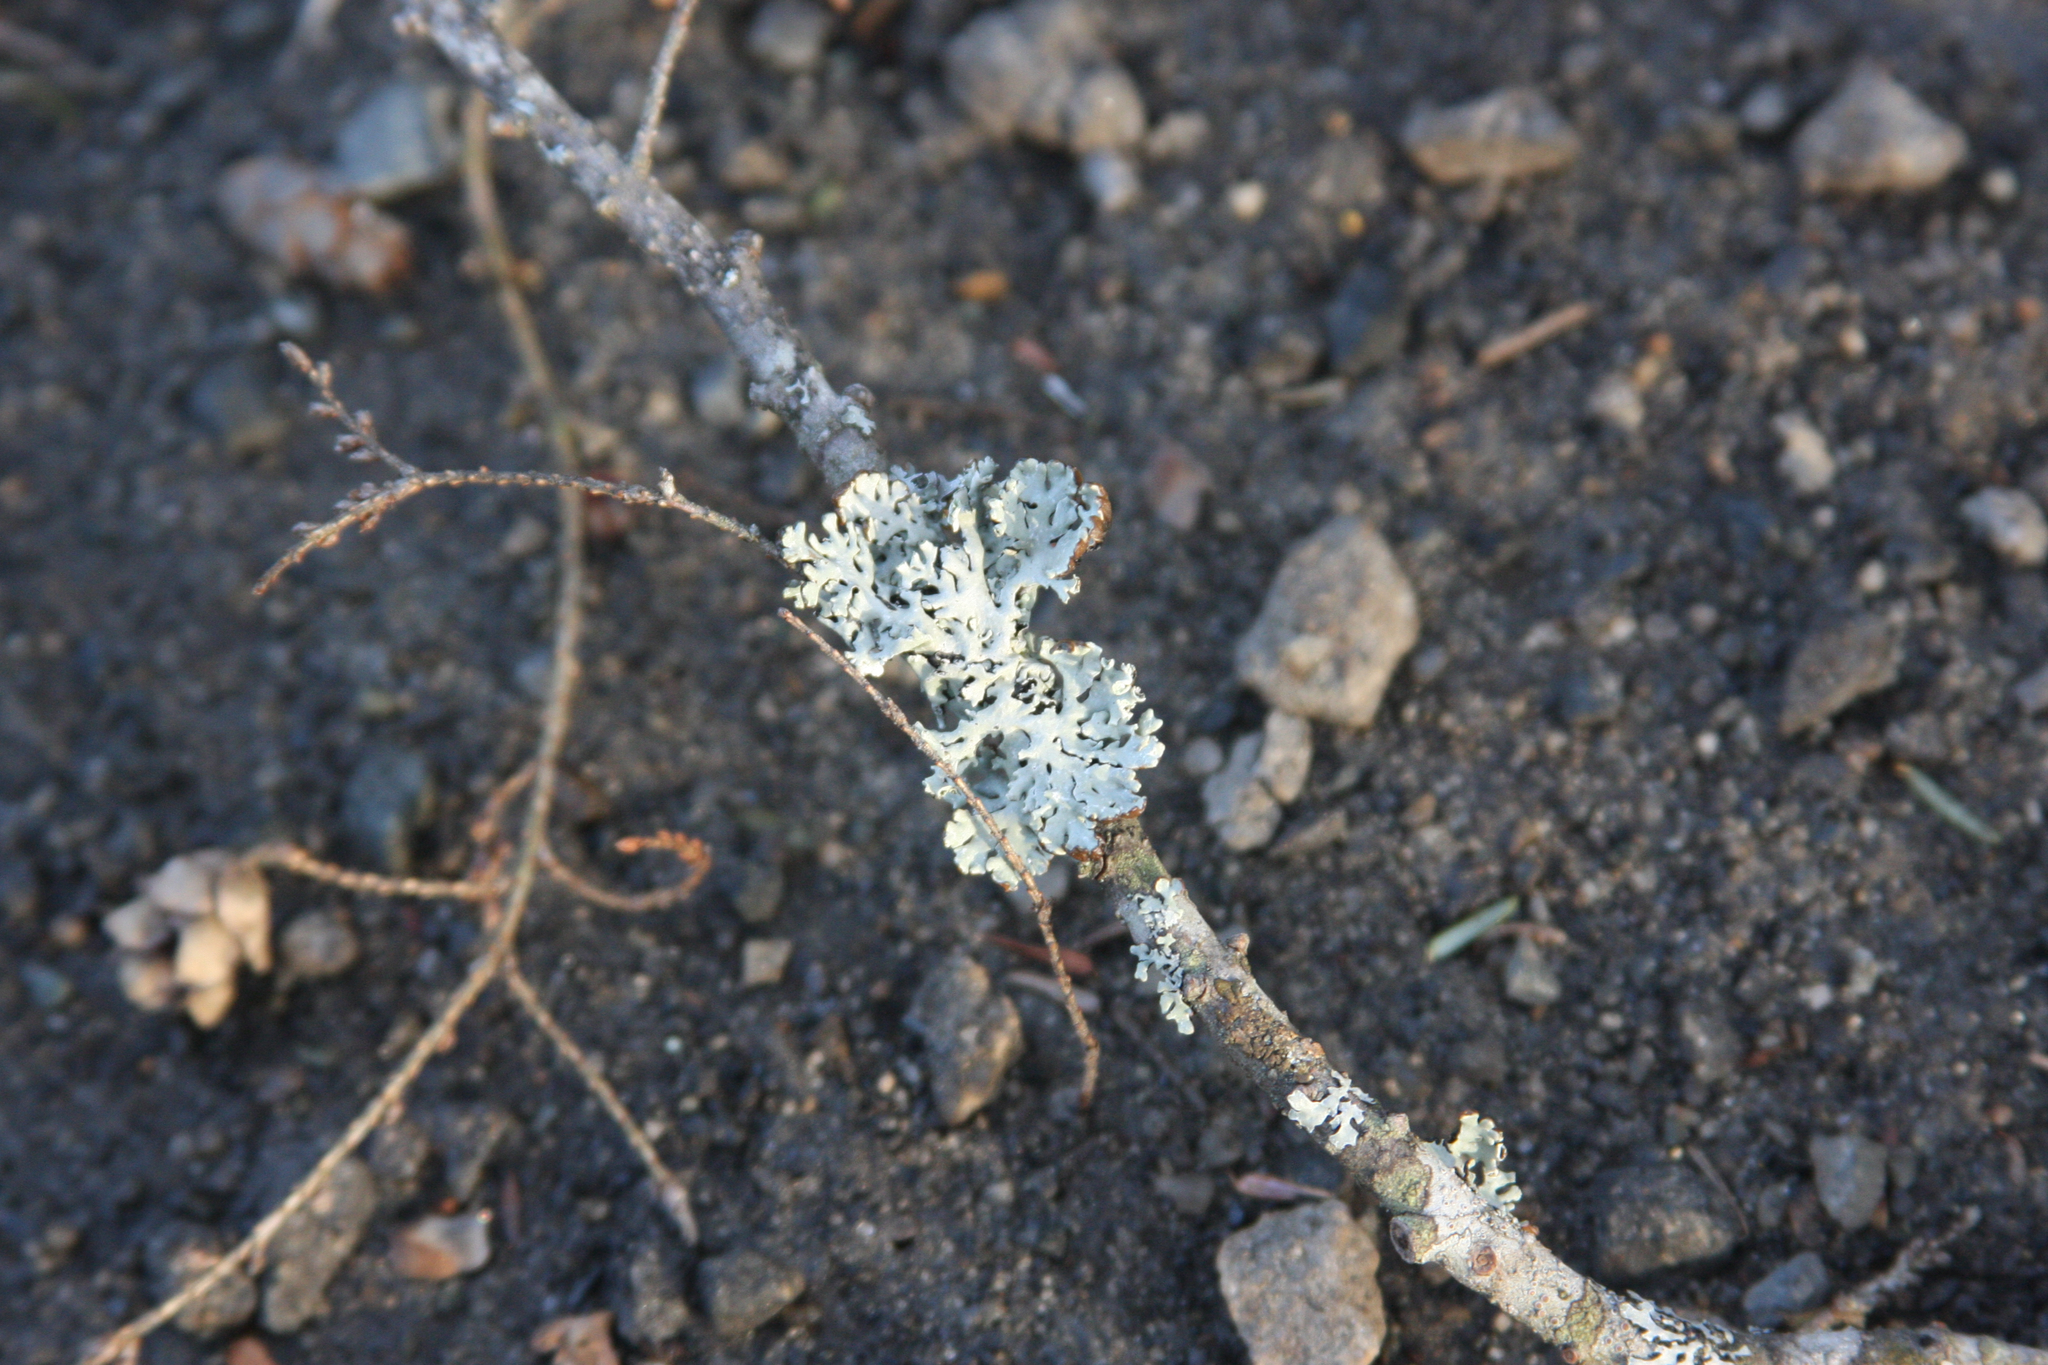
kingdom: Fungi
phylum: Ascomycota
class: Lecanoromycetes
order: Lecanorales
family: Parmeliaceae
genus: Hypogymnia
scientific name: Hypogymnia physodes
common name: Dark crottle
